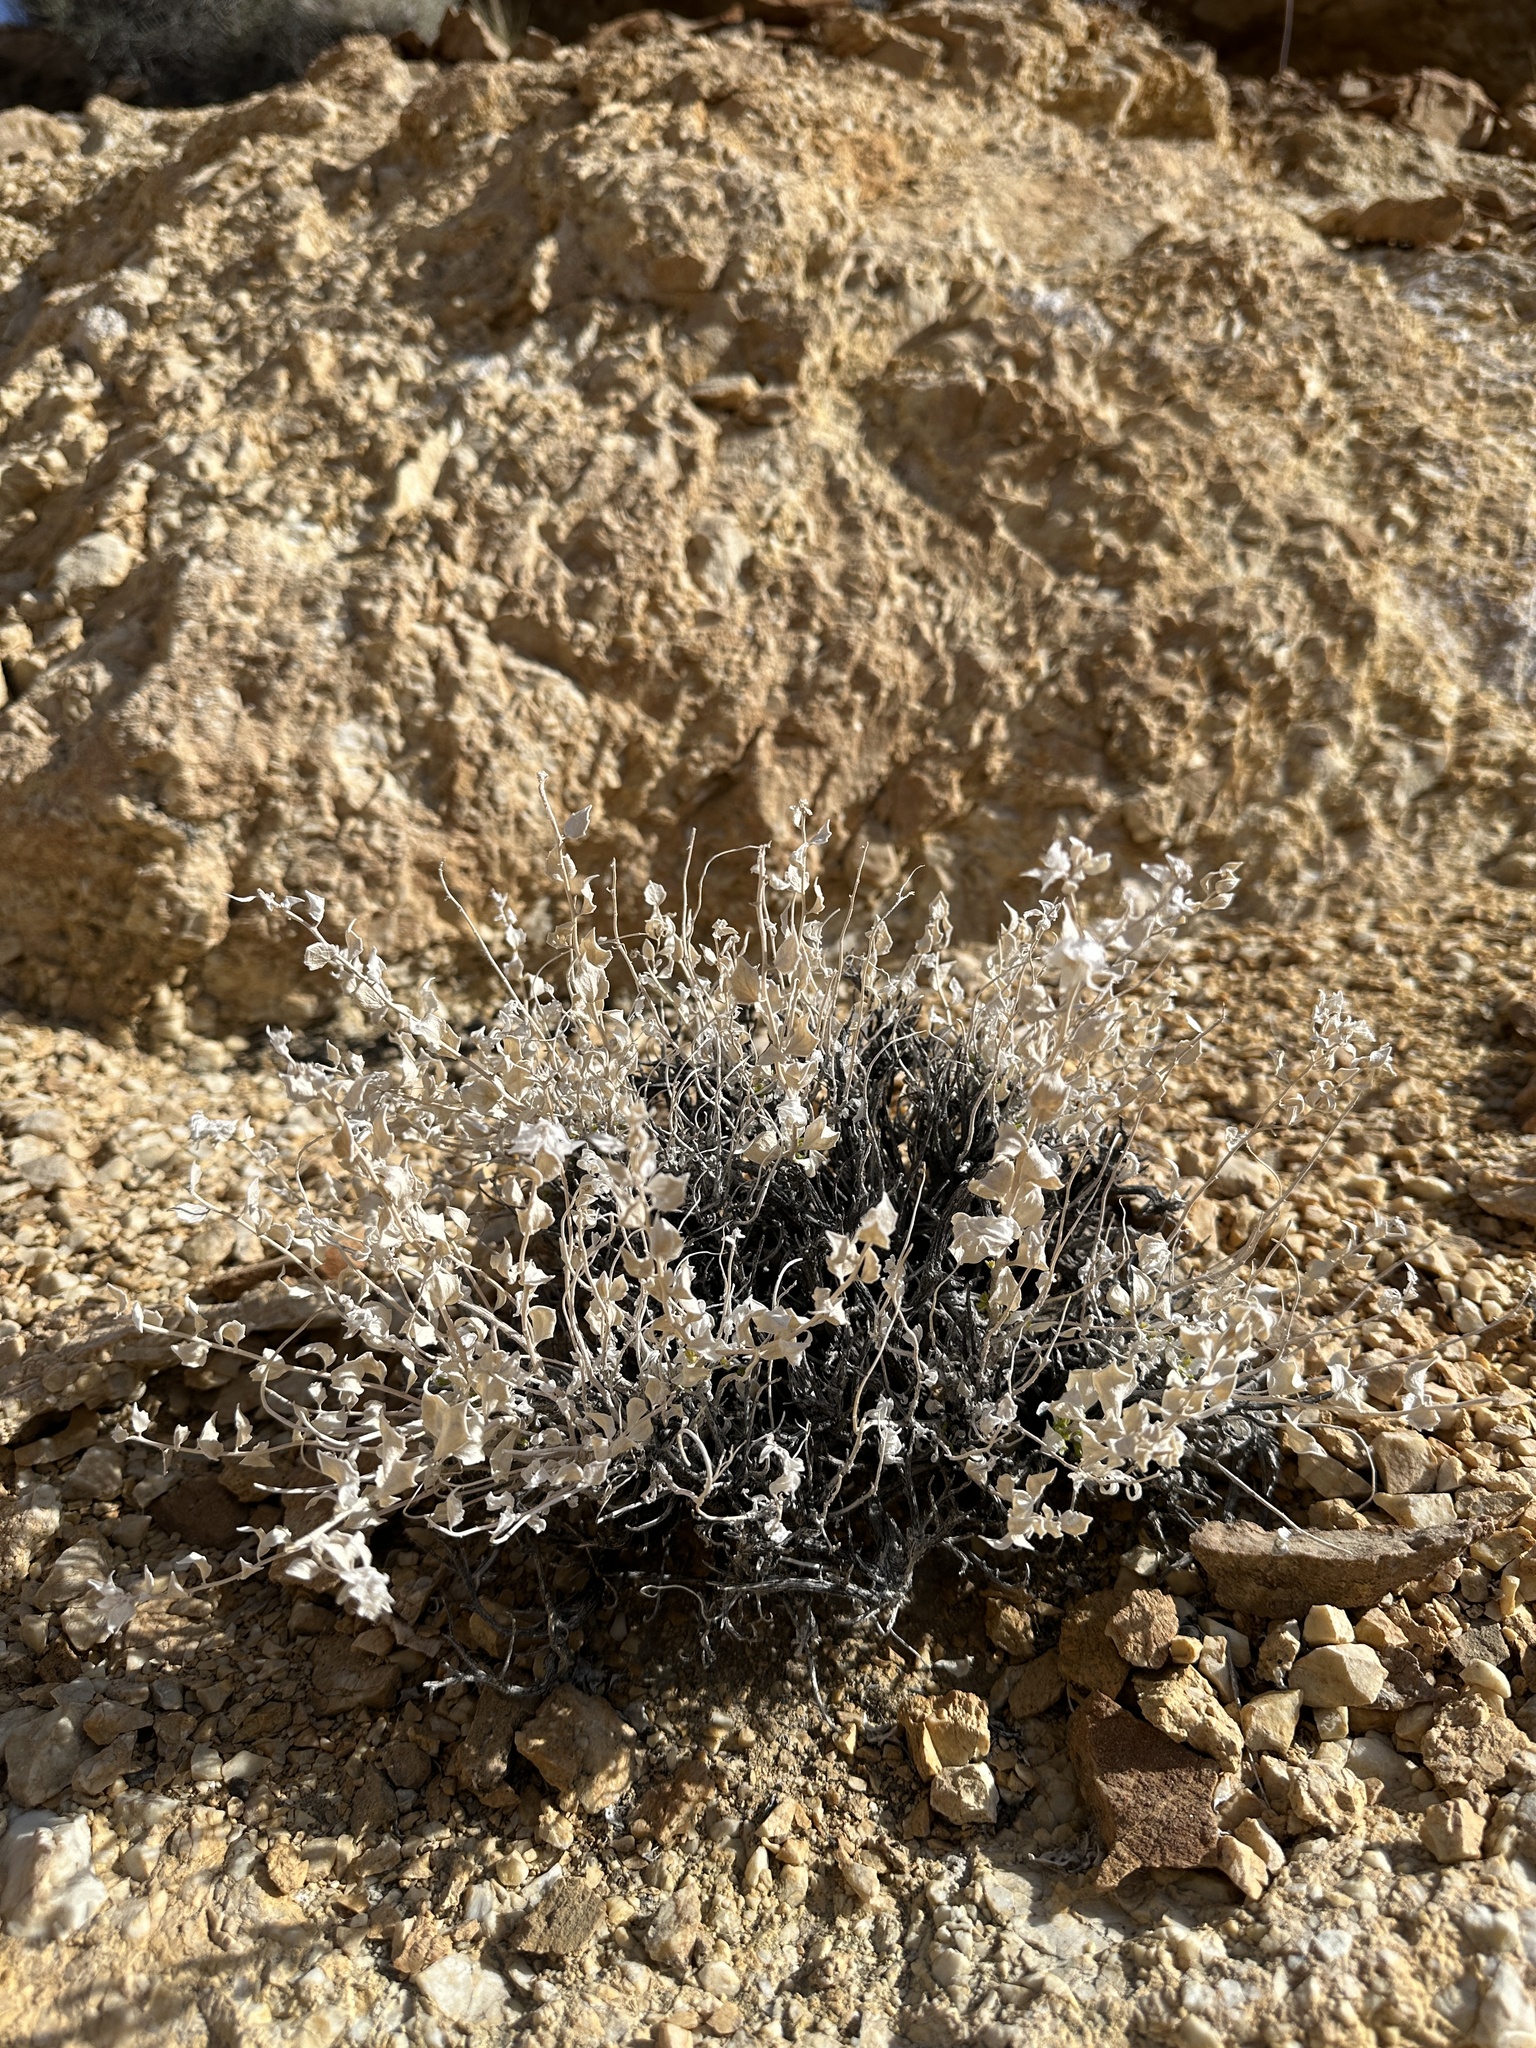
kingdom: Plantae
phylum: Tracheophyta
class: Magnoliopsida
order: Cornales
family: Loasaceae
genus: Petalonyx
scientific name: Petalonyx nitidus
